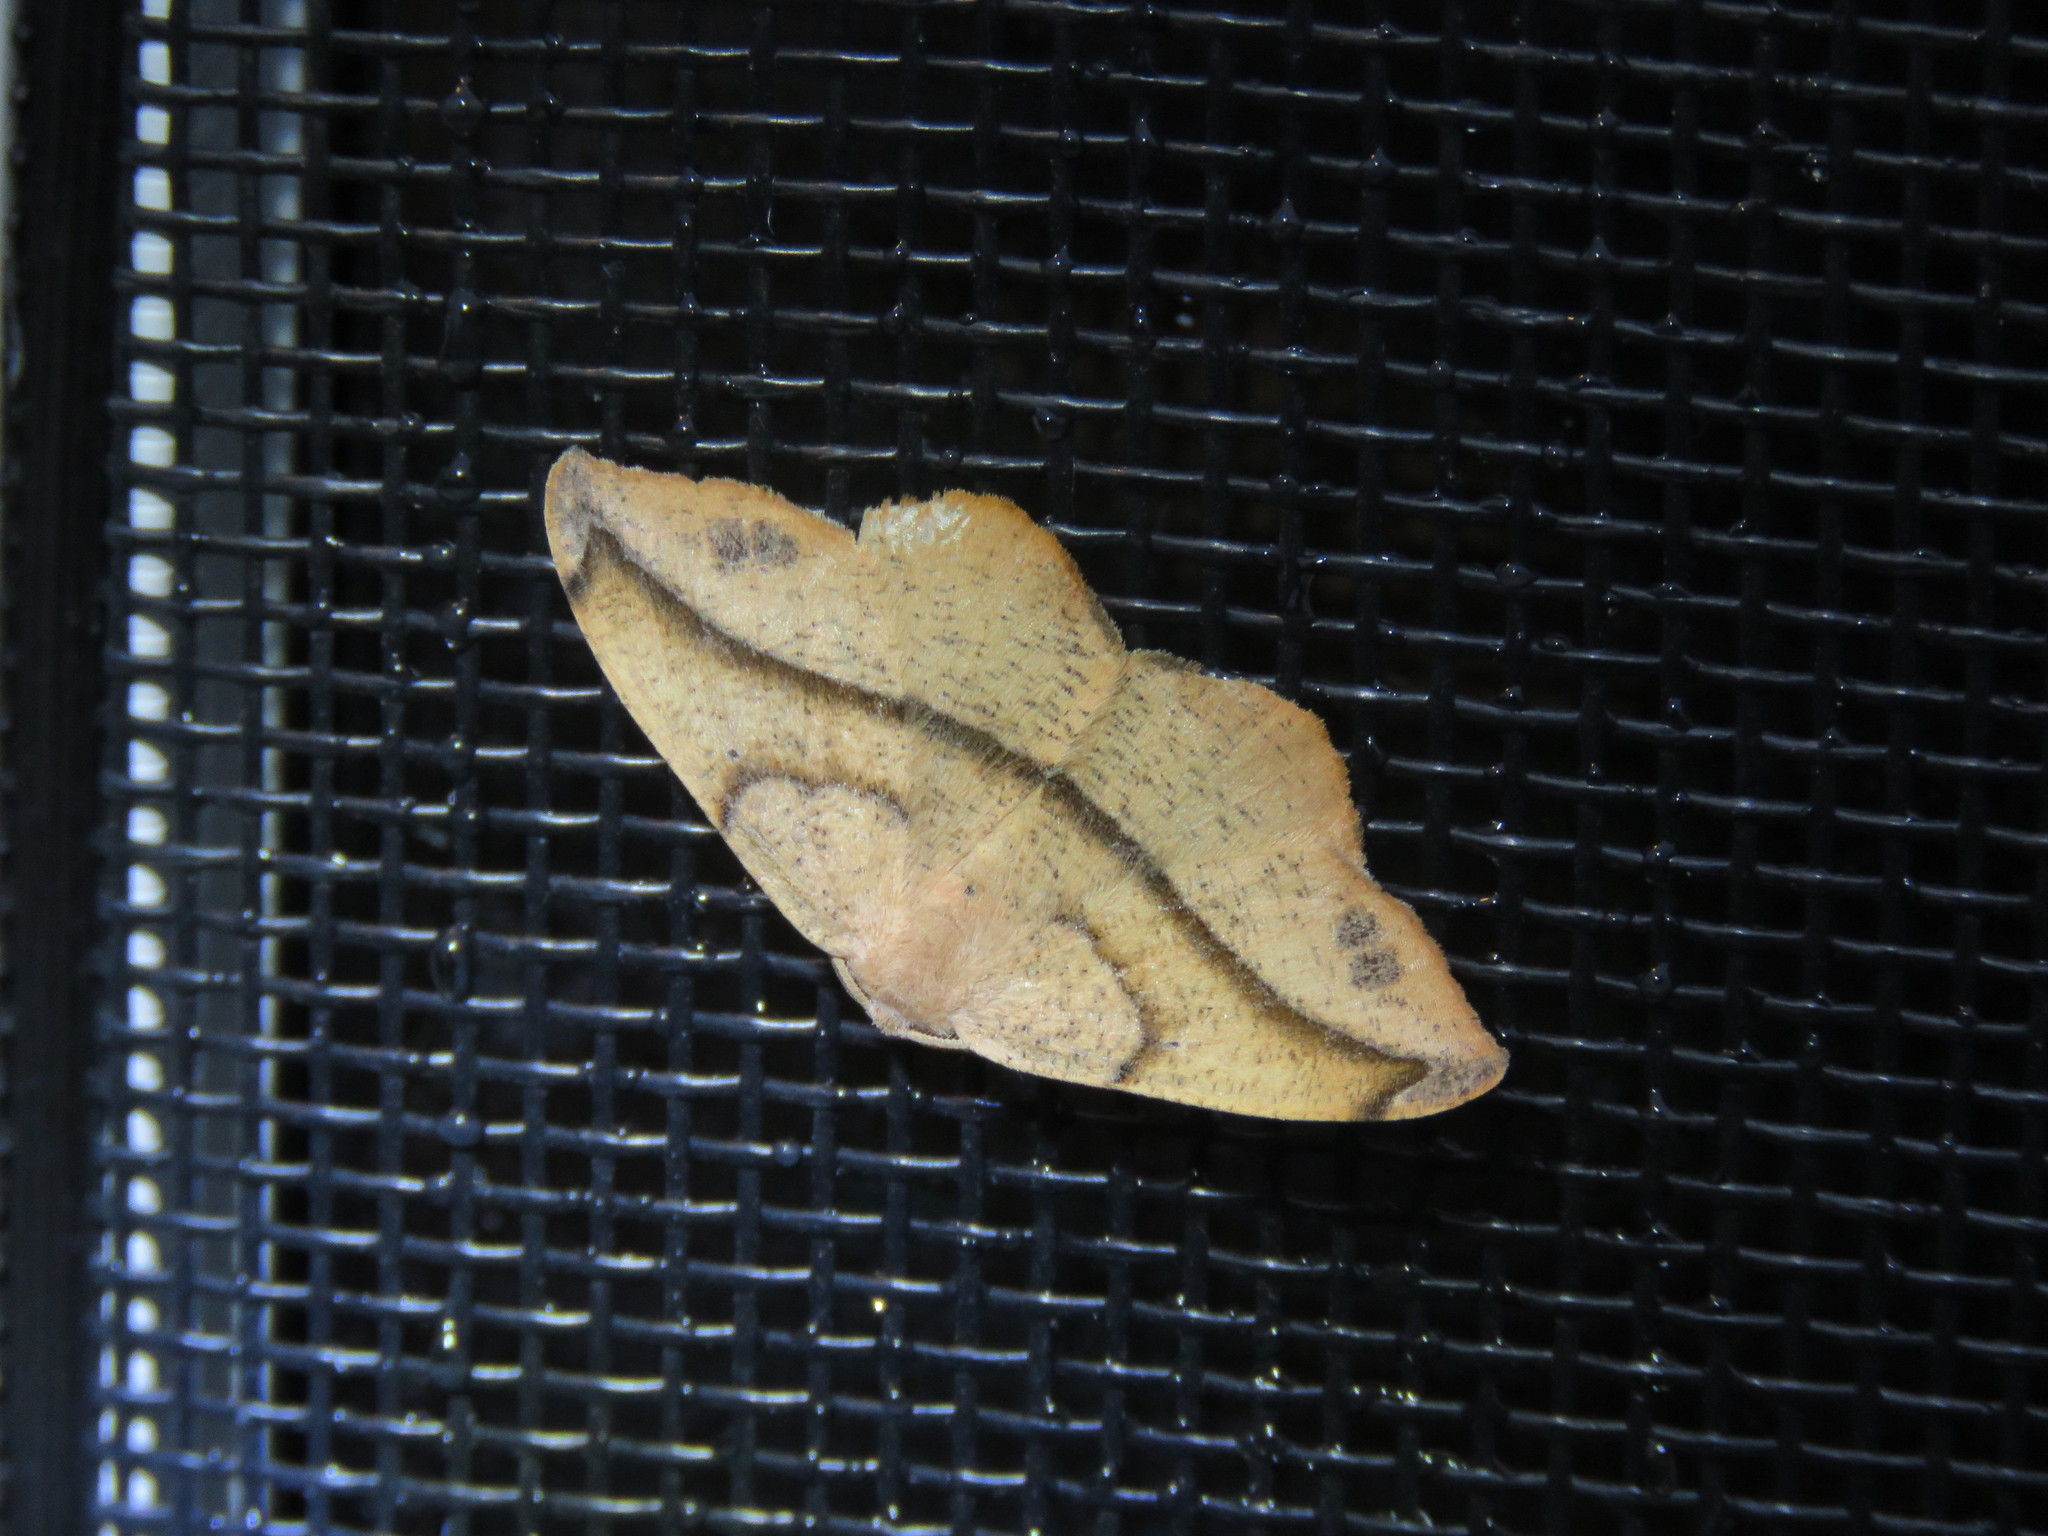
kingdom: Animalia
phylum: Arthropoda
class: Insecta
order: Lepidoptera
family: Geometridae
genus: Patalene
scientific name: Patalene olyzonaria
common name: Juniper geometer moth
